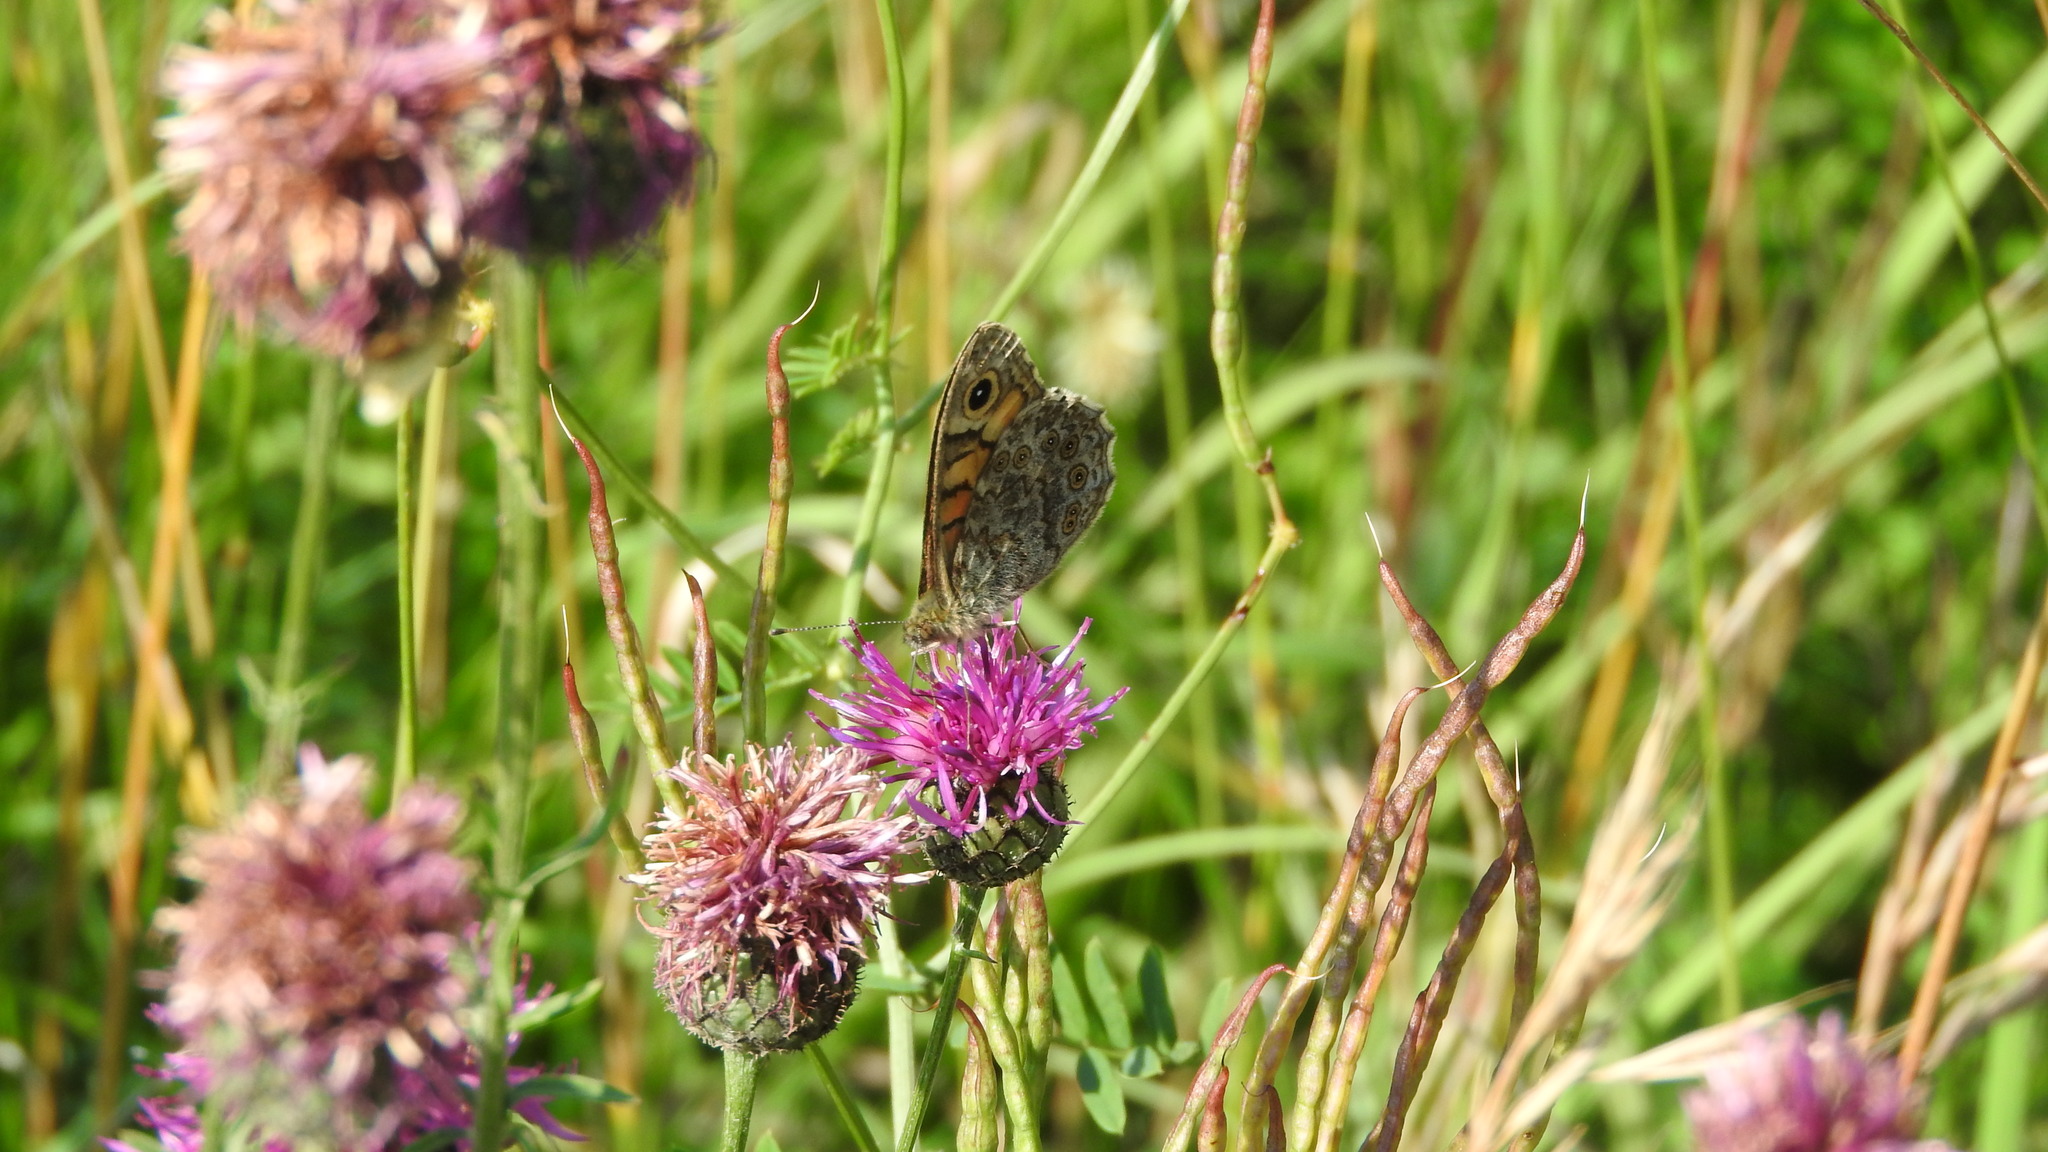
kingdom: Animalia
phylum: Arthropoda
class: Insecta
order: Lepidoptera
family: Nymphalidae
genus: Pararge
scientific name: Pararge Lasiommata megera
